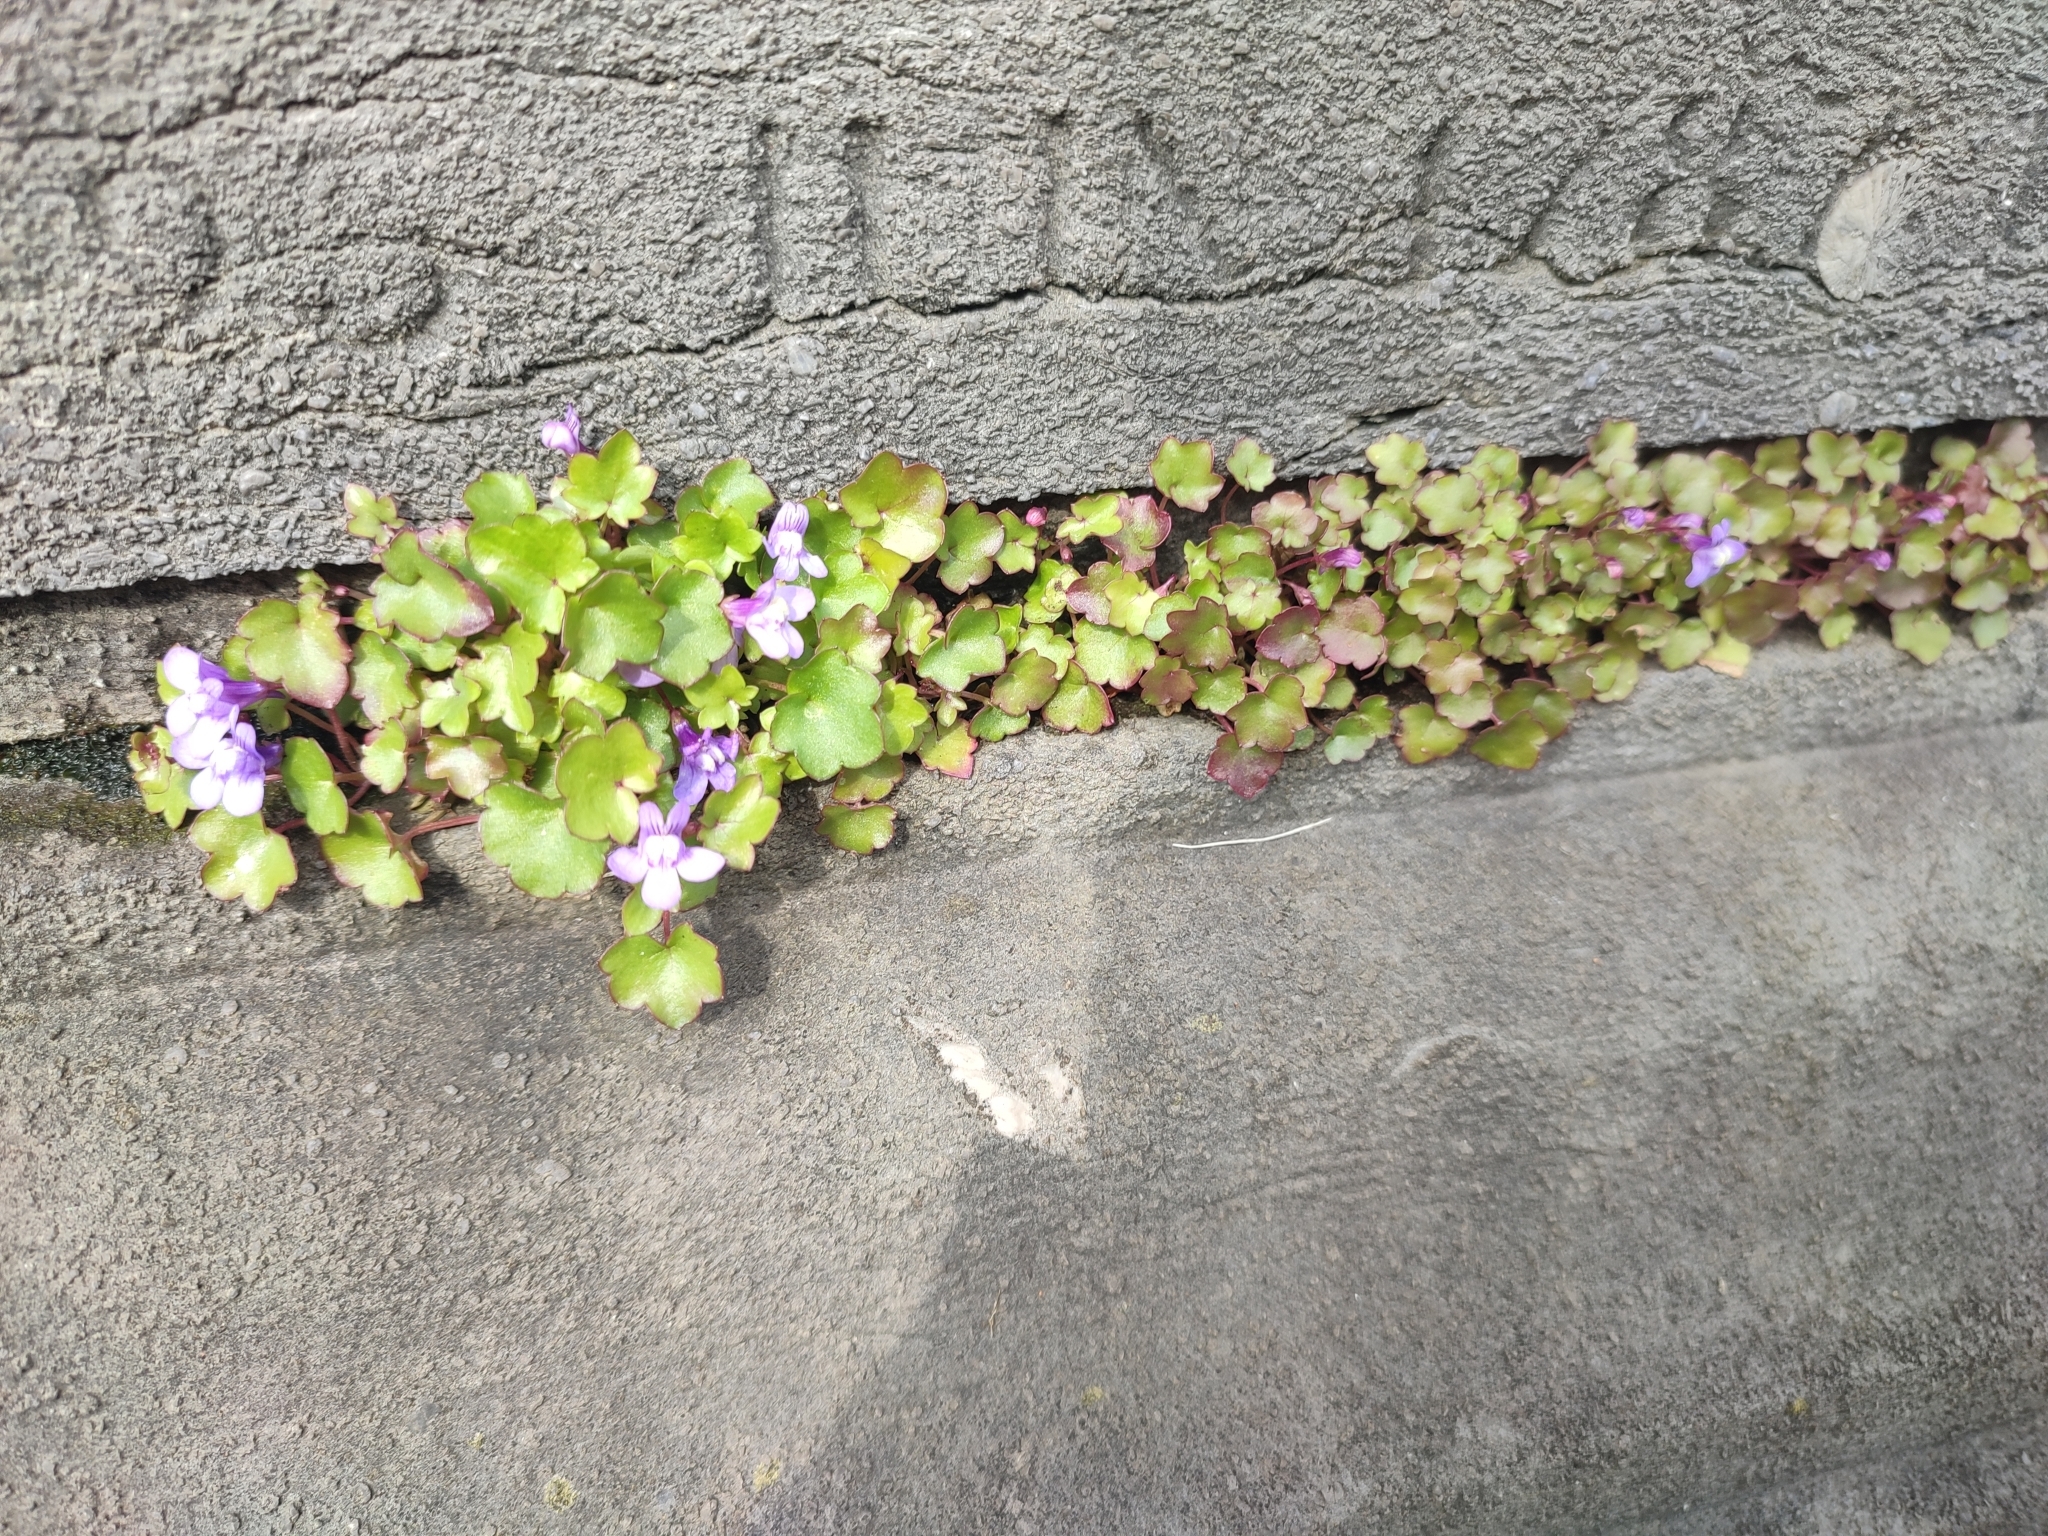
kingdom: Plantae
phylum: Tracheophyta
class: Magnoliopsida
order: Lamiales
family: Plantaginaceae
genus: Cymbalaria
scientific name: Cymbalaria muralis
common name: Ivy-leaved toadflax
